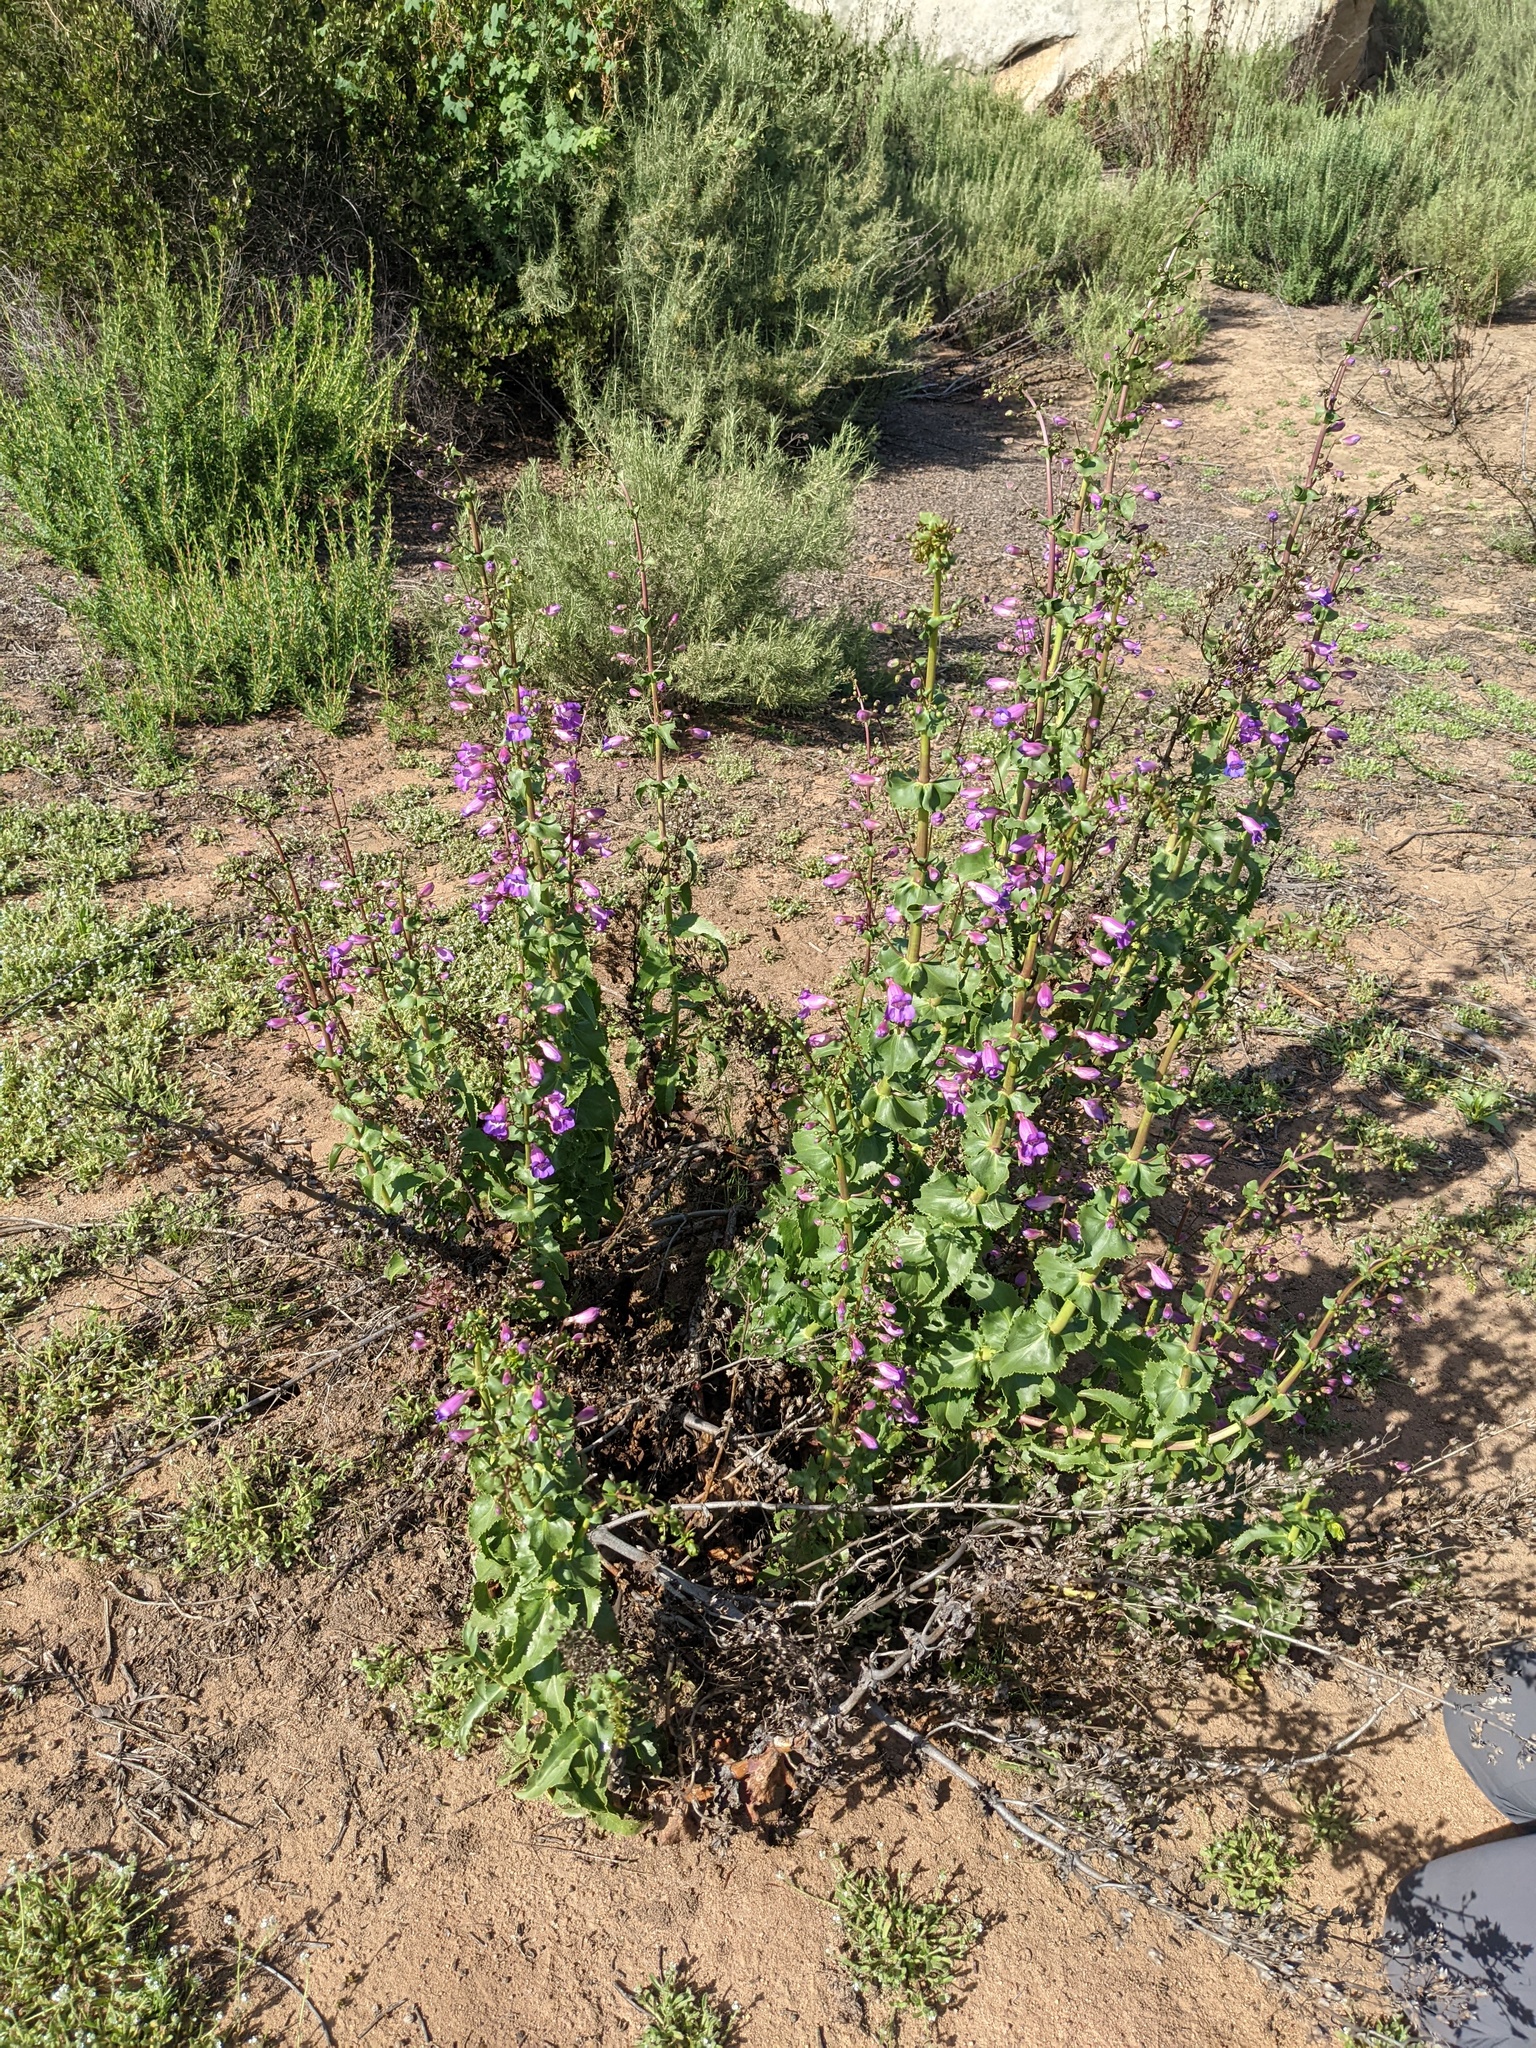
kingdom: Plantae
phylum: Tracheophyta
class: Magnoliopsida
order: Lamiales
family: Plantaginaceae
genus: Penstemon
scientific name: Penstemon spectabilis
